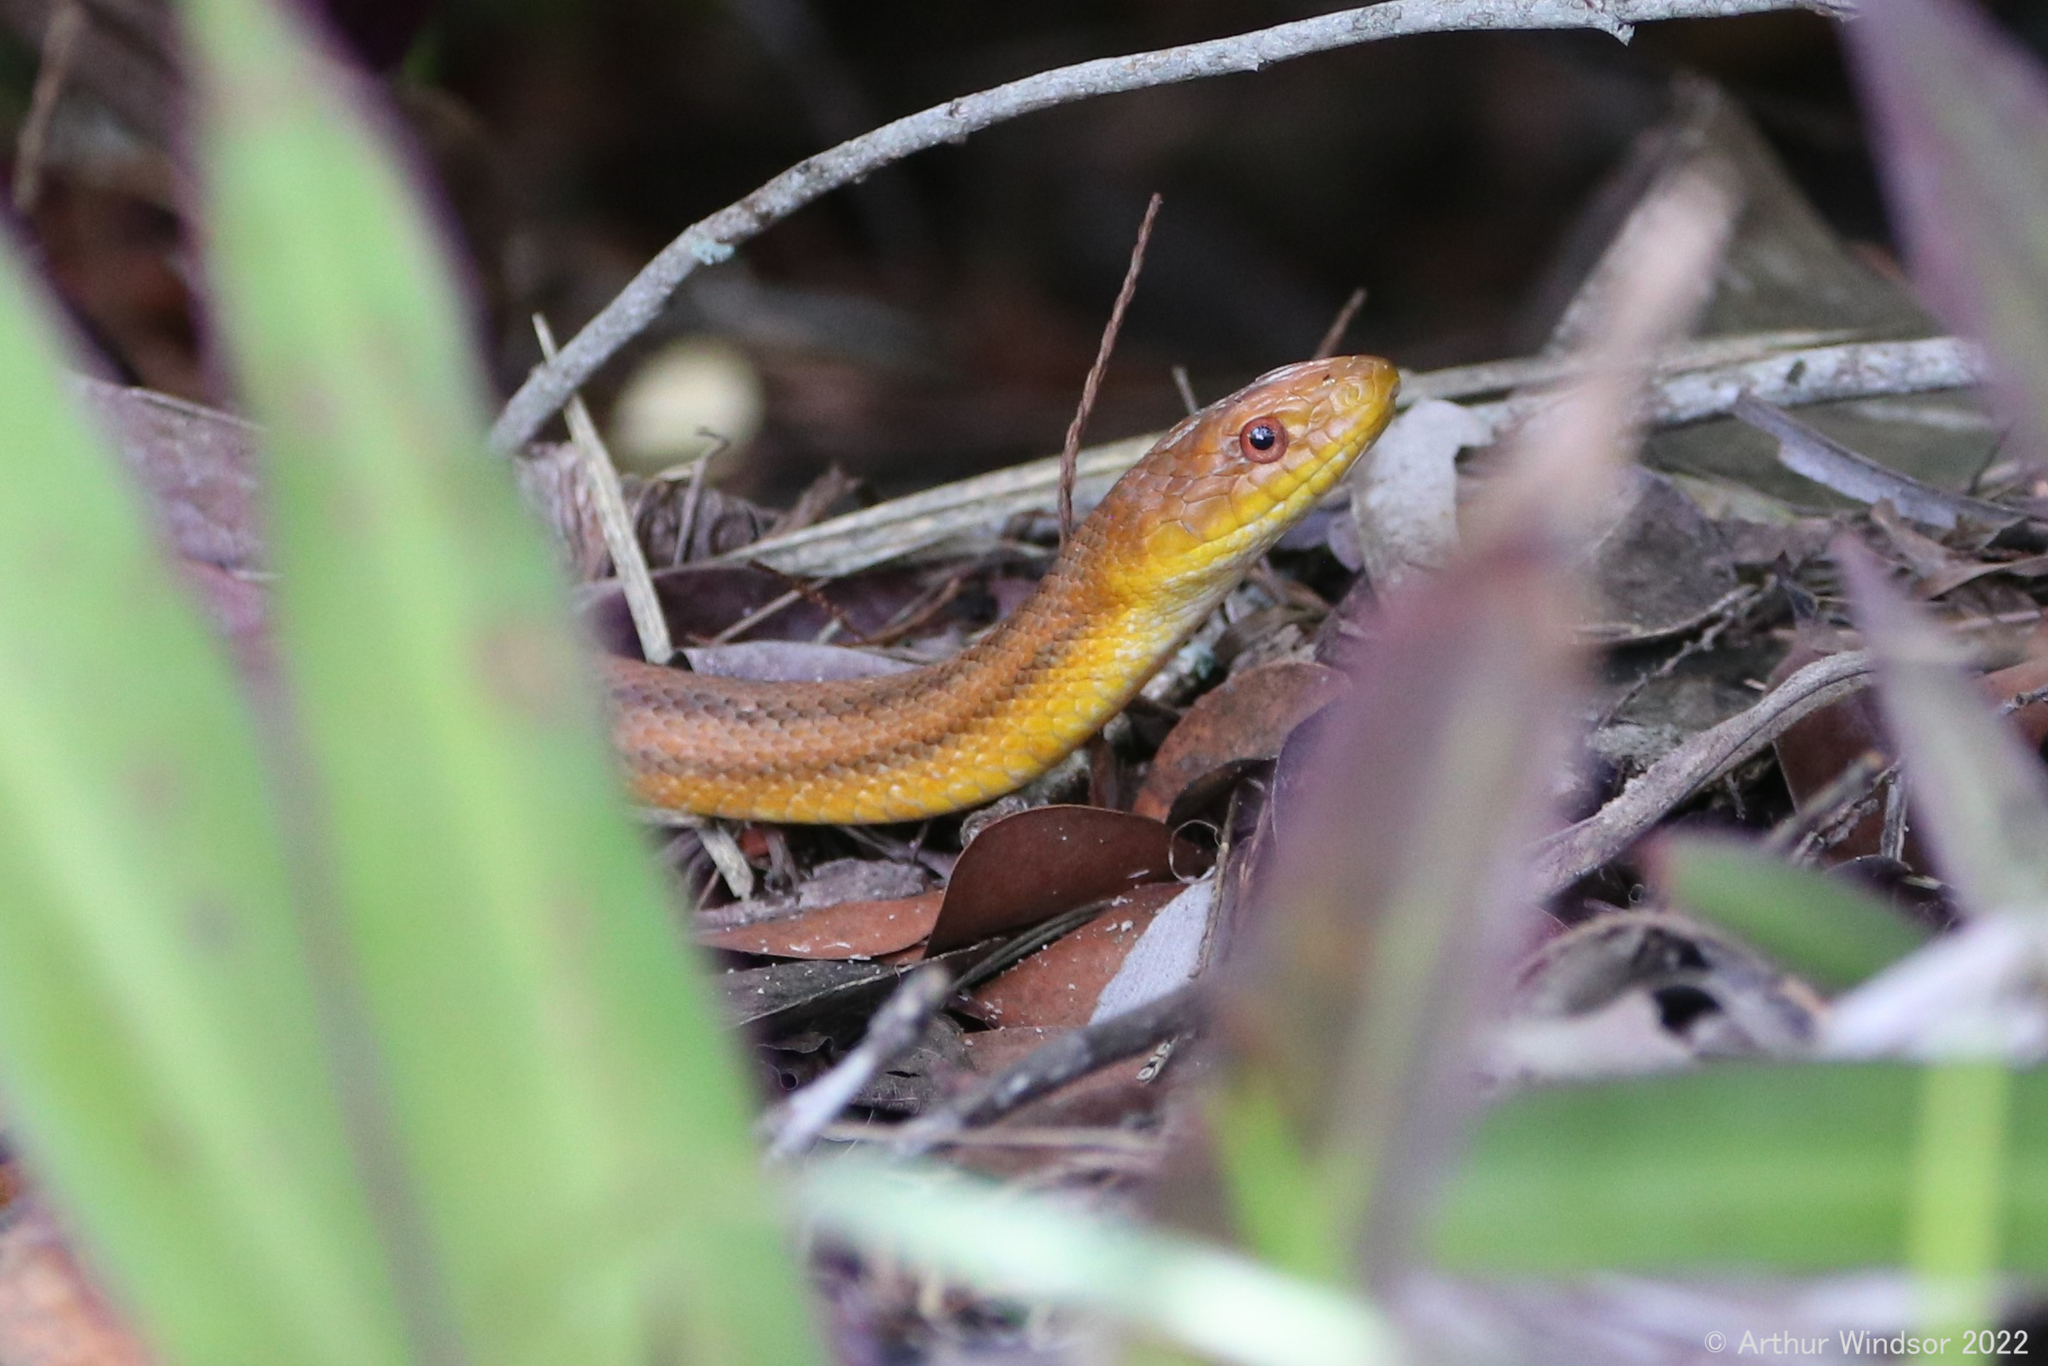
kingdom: Animalia
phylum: Chordata
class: Squamata
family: Colubridae
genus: Pantherophis
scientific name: Pantherophis alleghaniensis
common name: Eastern rat snake
